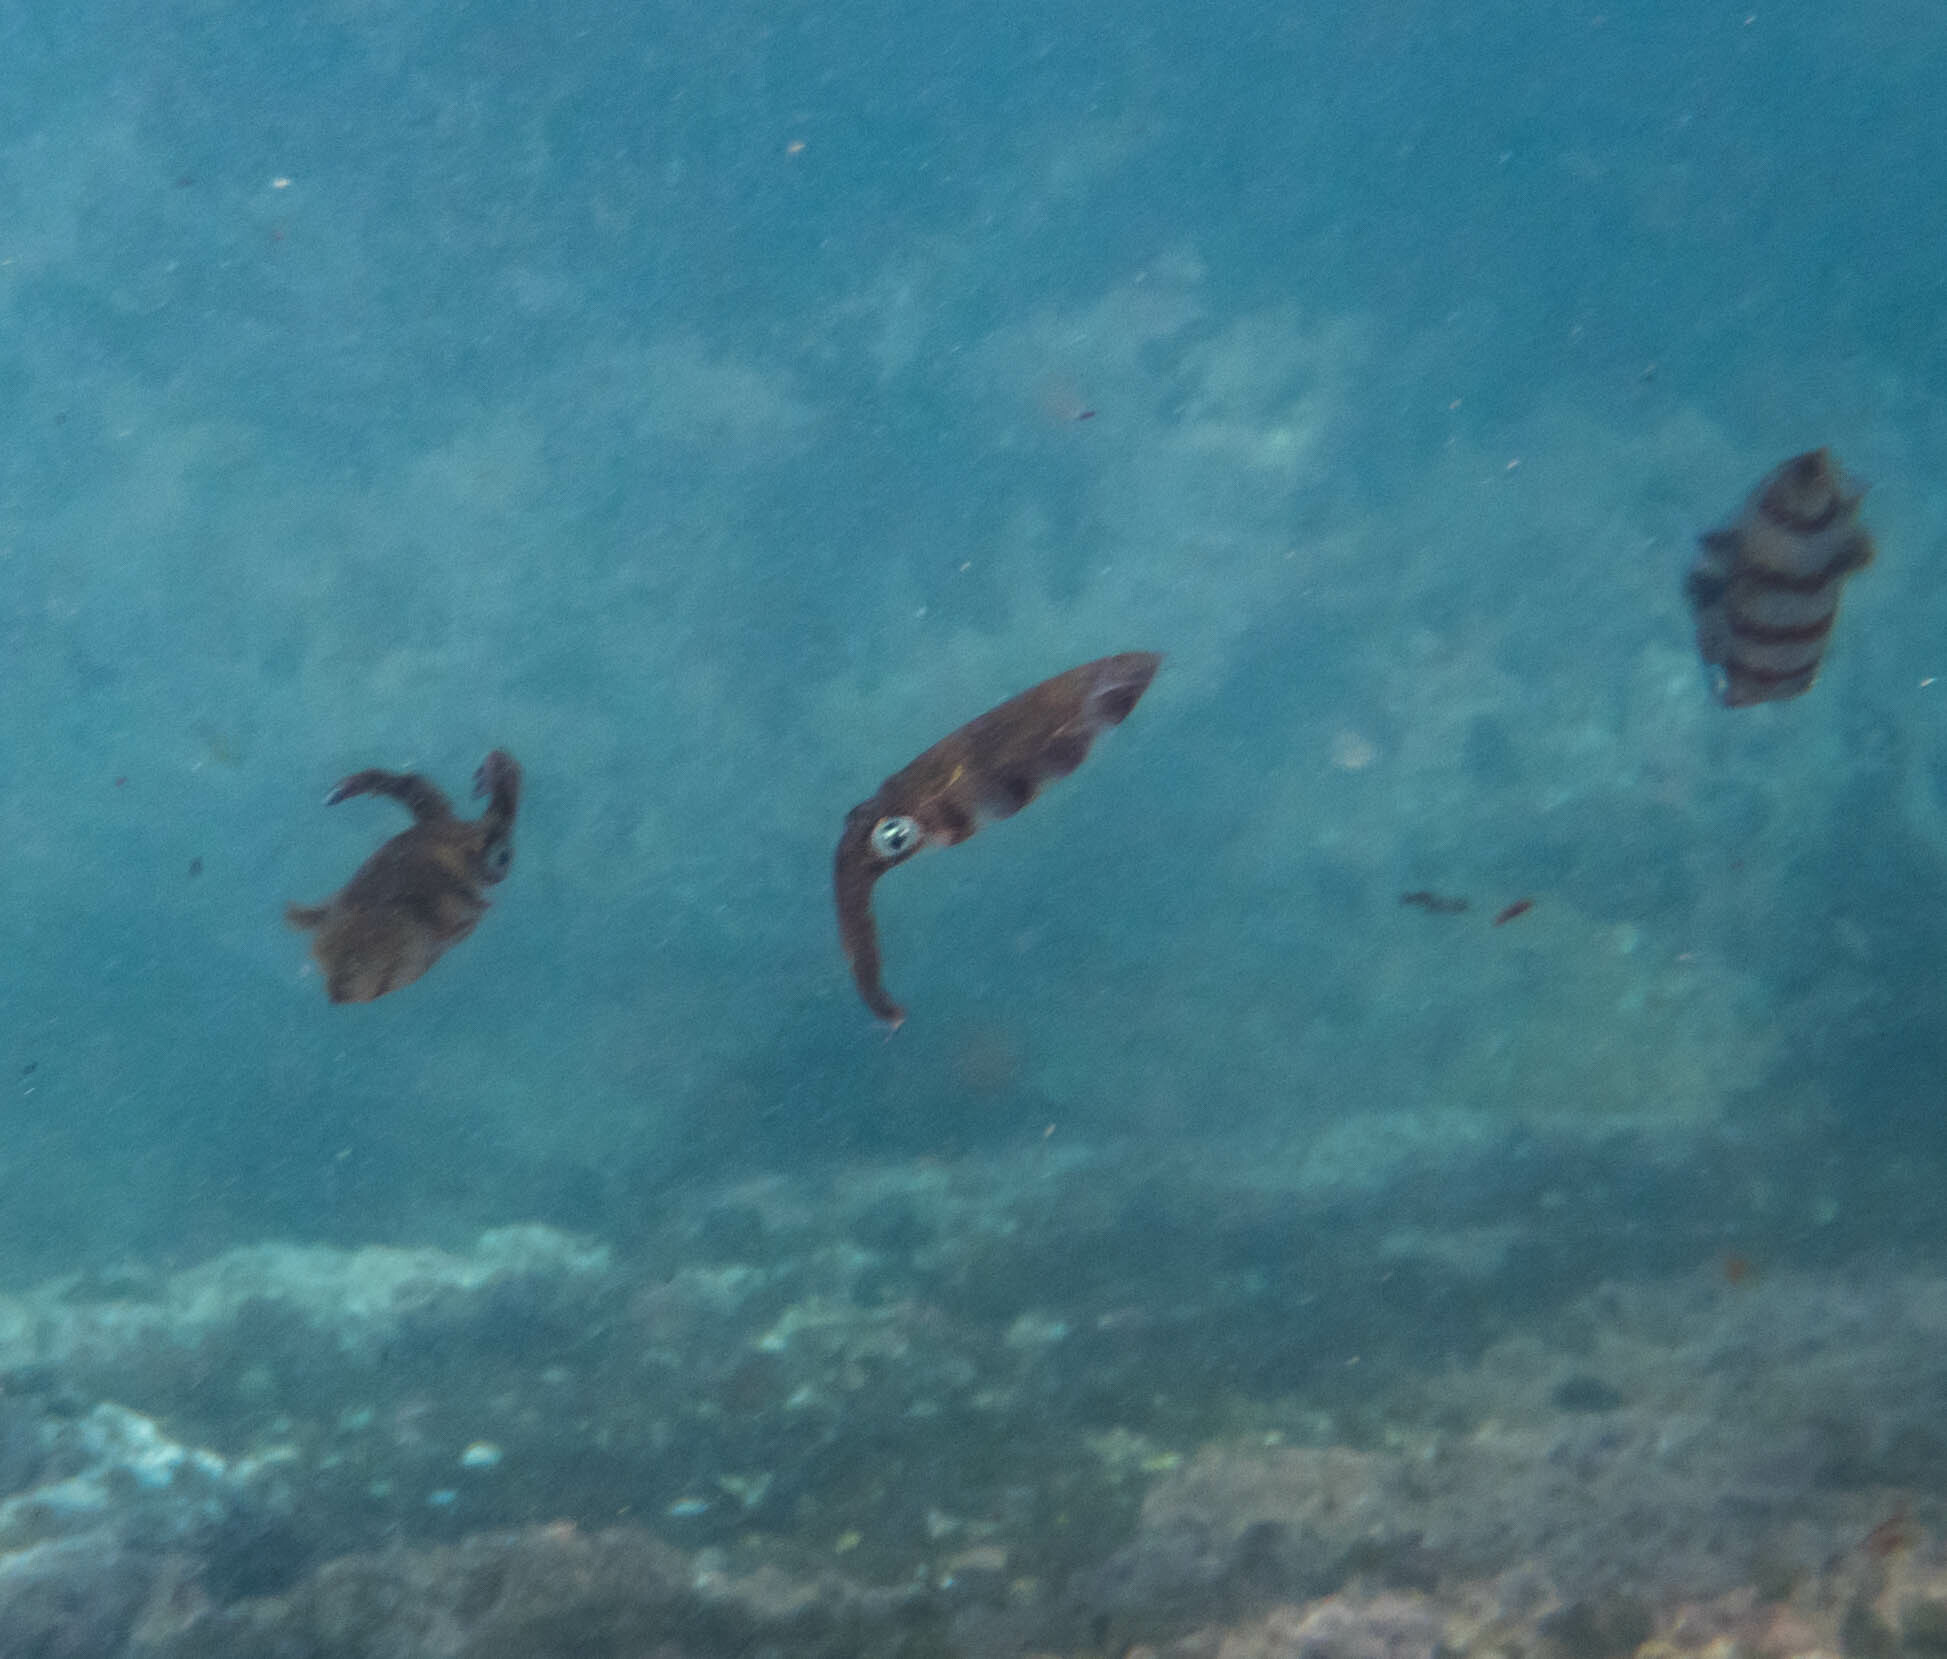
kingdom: Animalia
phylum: Mollusca
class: Cephalopoda
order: Myopsida
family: Loliginidae
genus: Sepioteuthis
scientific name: Sepioteuthis australis
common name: Southern reef squid
